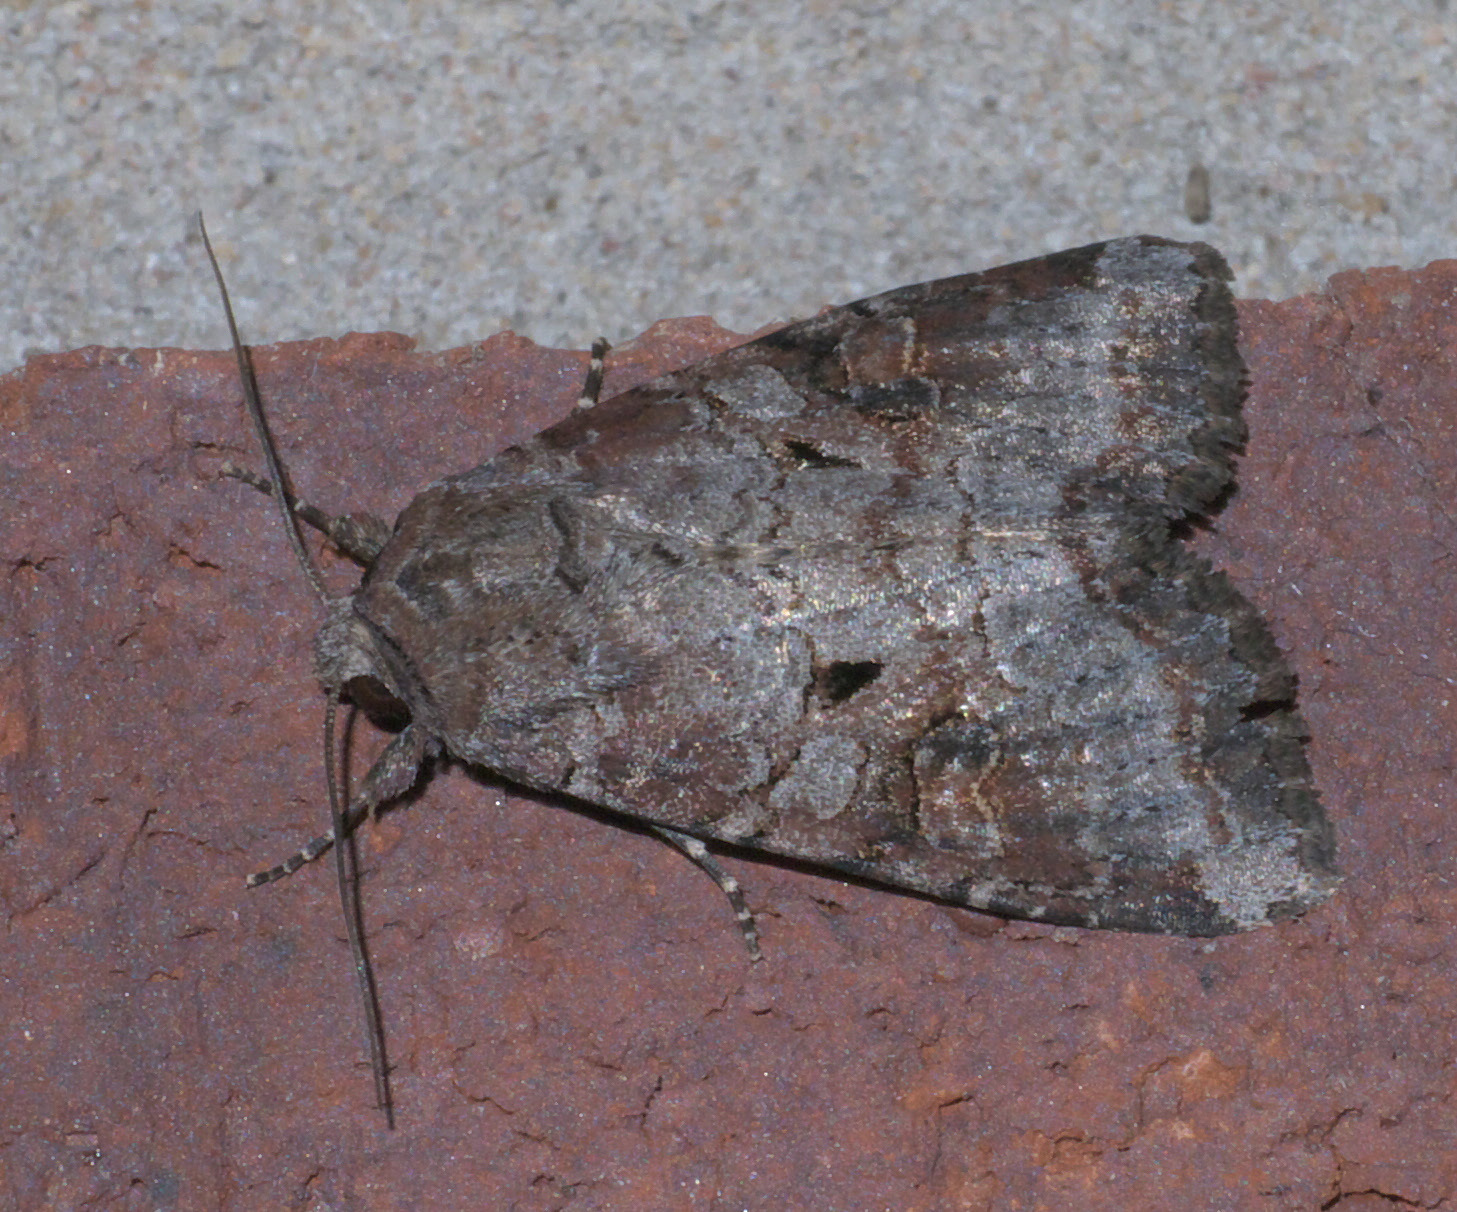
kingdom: Animalia
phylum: Arthropoda
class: Insecta
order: Lepidoptera
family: Noctuidae
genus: Trichordestra
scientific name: Trichordestra legitima
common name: Striped garden caterpillar
